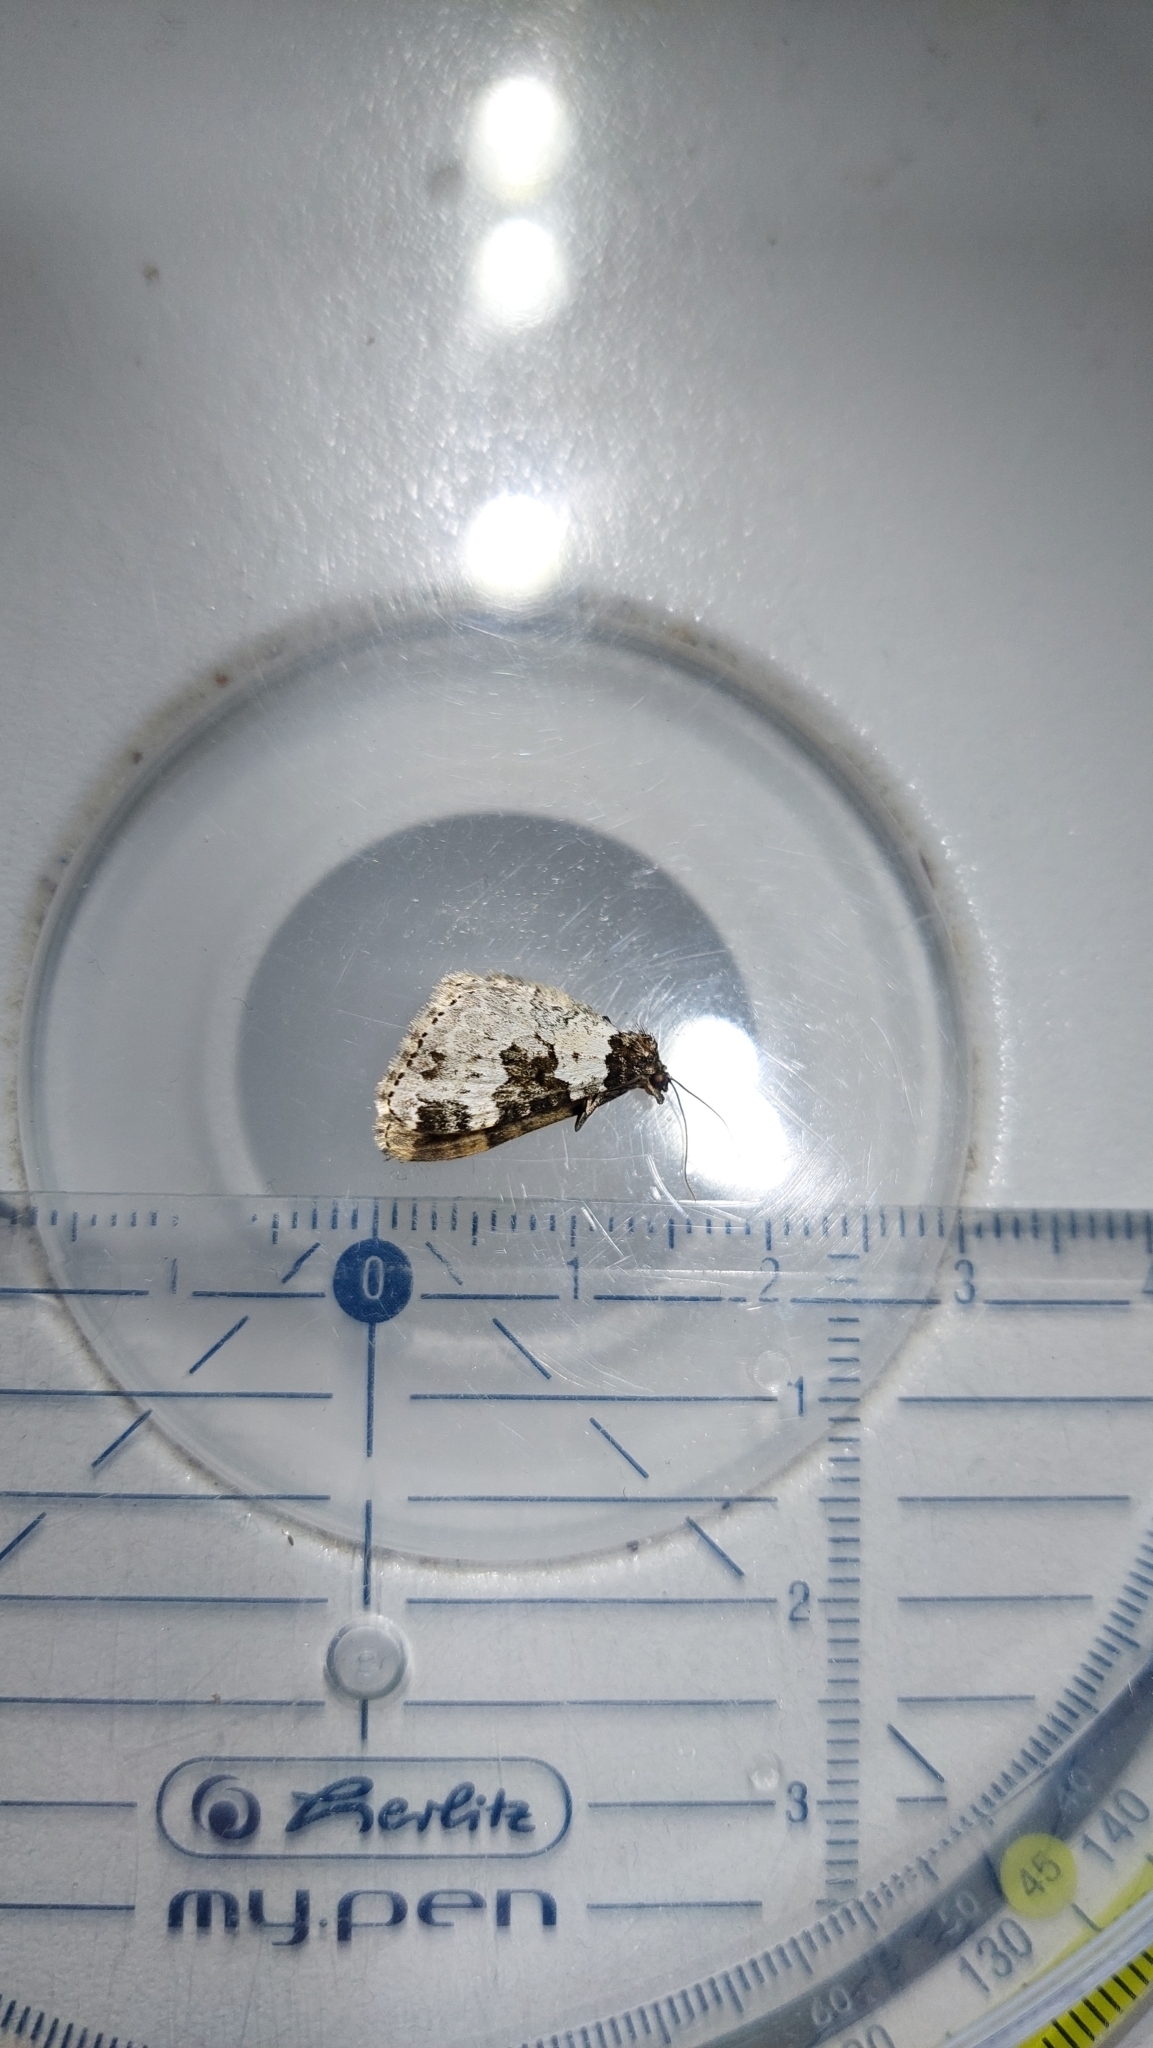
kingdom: Animalia
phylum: Arthropoda
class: Insecta
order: Lepidoptera
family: Geometridae
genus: Xanthorhoe
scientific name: Xanthorhoe fluctuata
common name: Garden carpet
